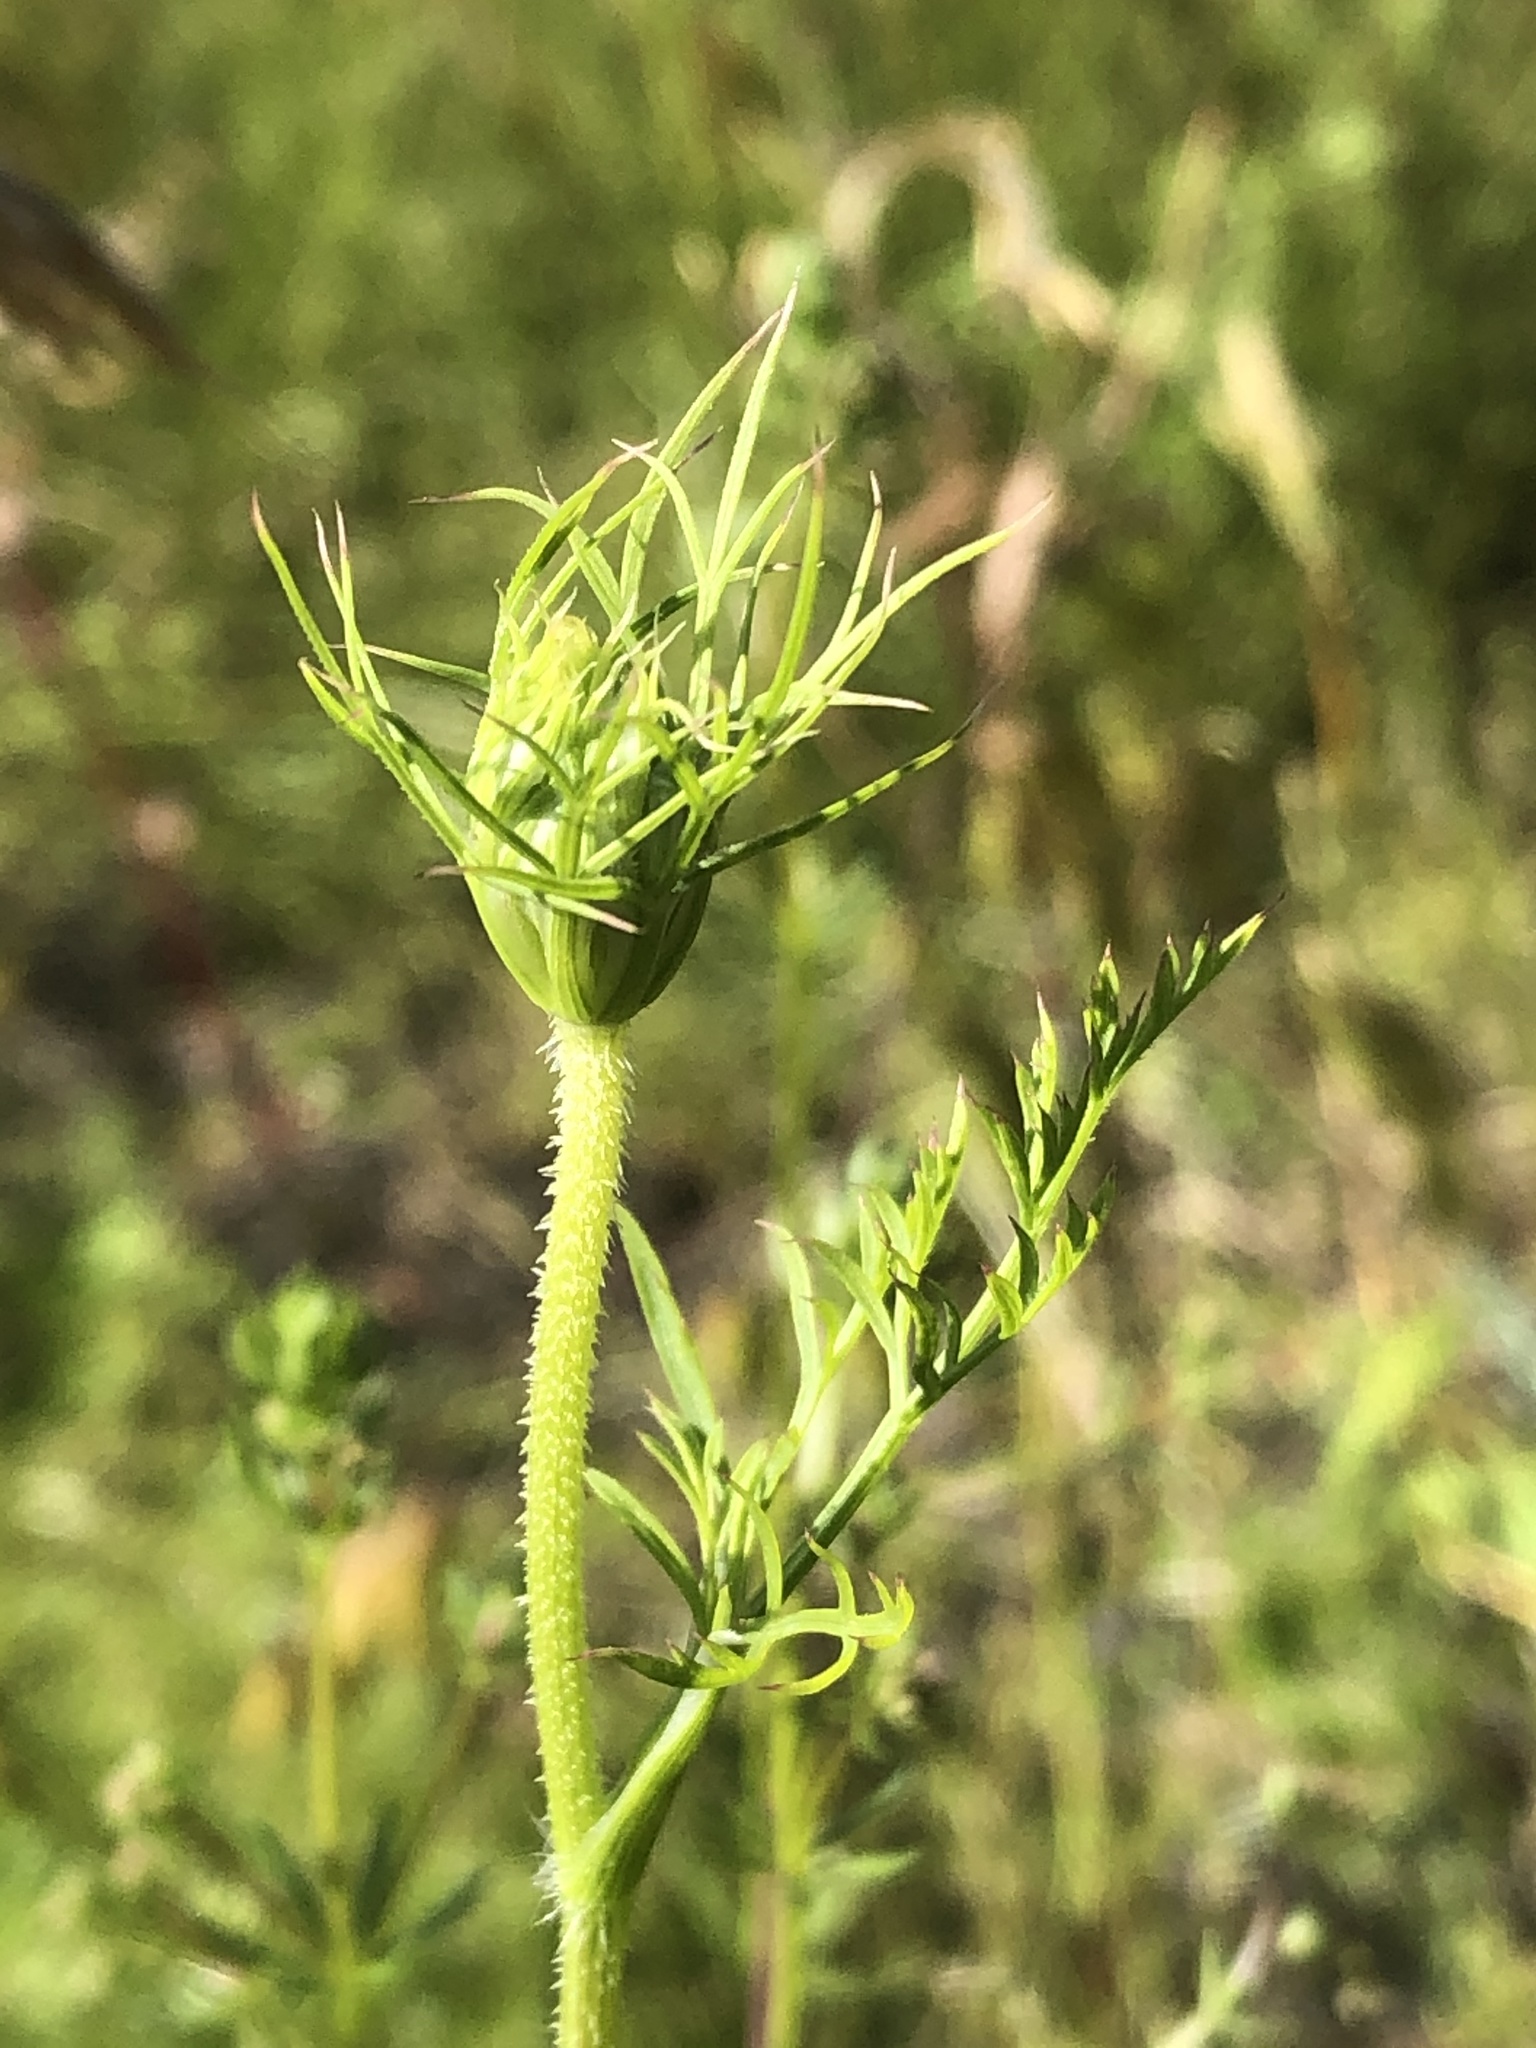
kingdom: Plantae
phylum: Tracheophyta
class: Magnoliopsida
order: Apiales
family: Apiaceae
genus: Daucus
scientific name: Daucus carota
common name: Wild carrot
